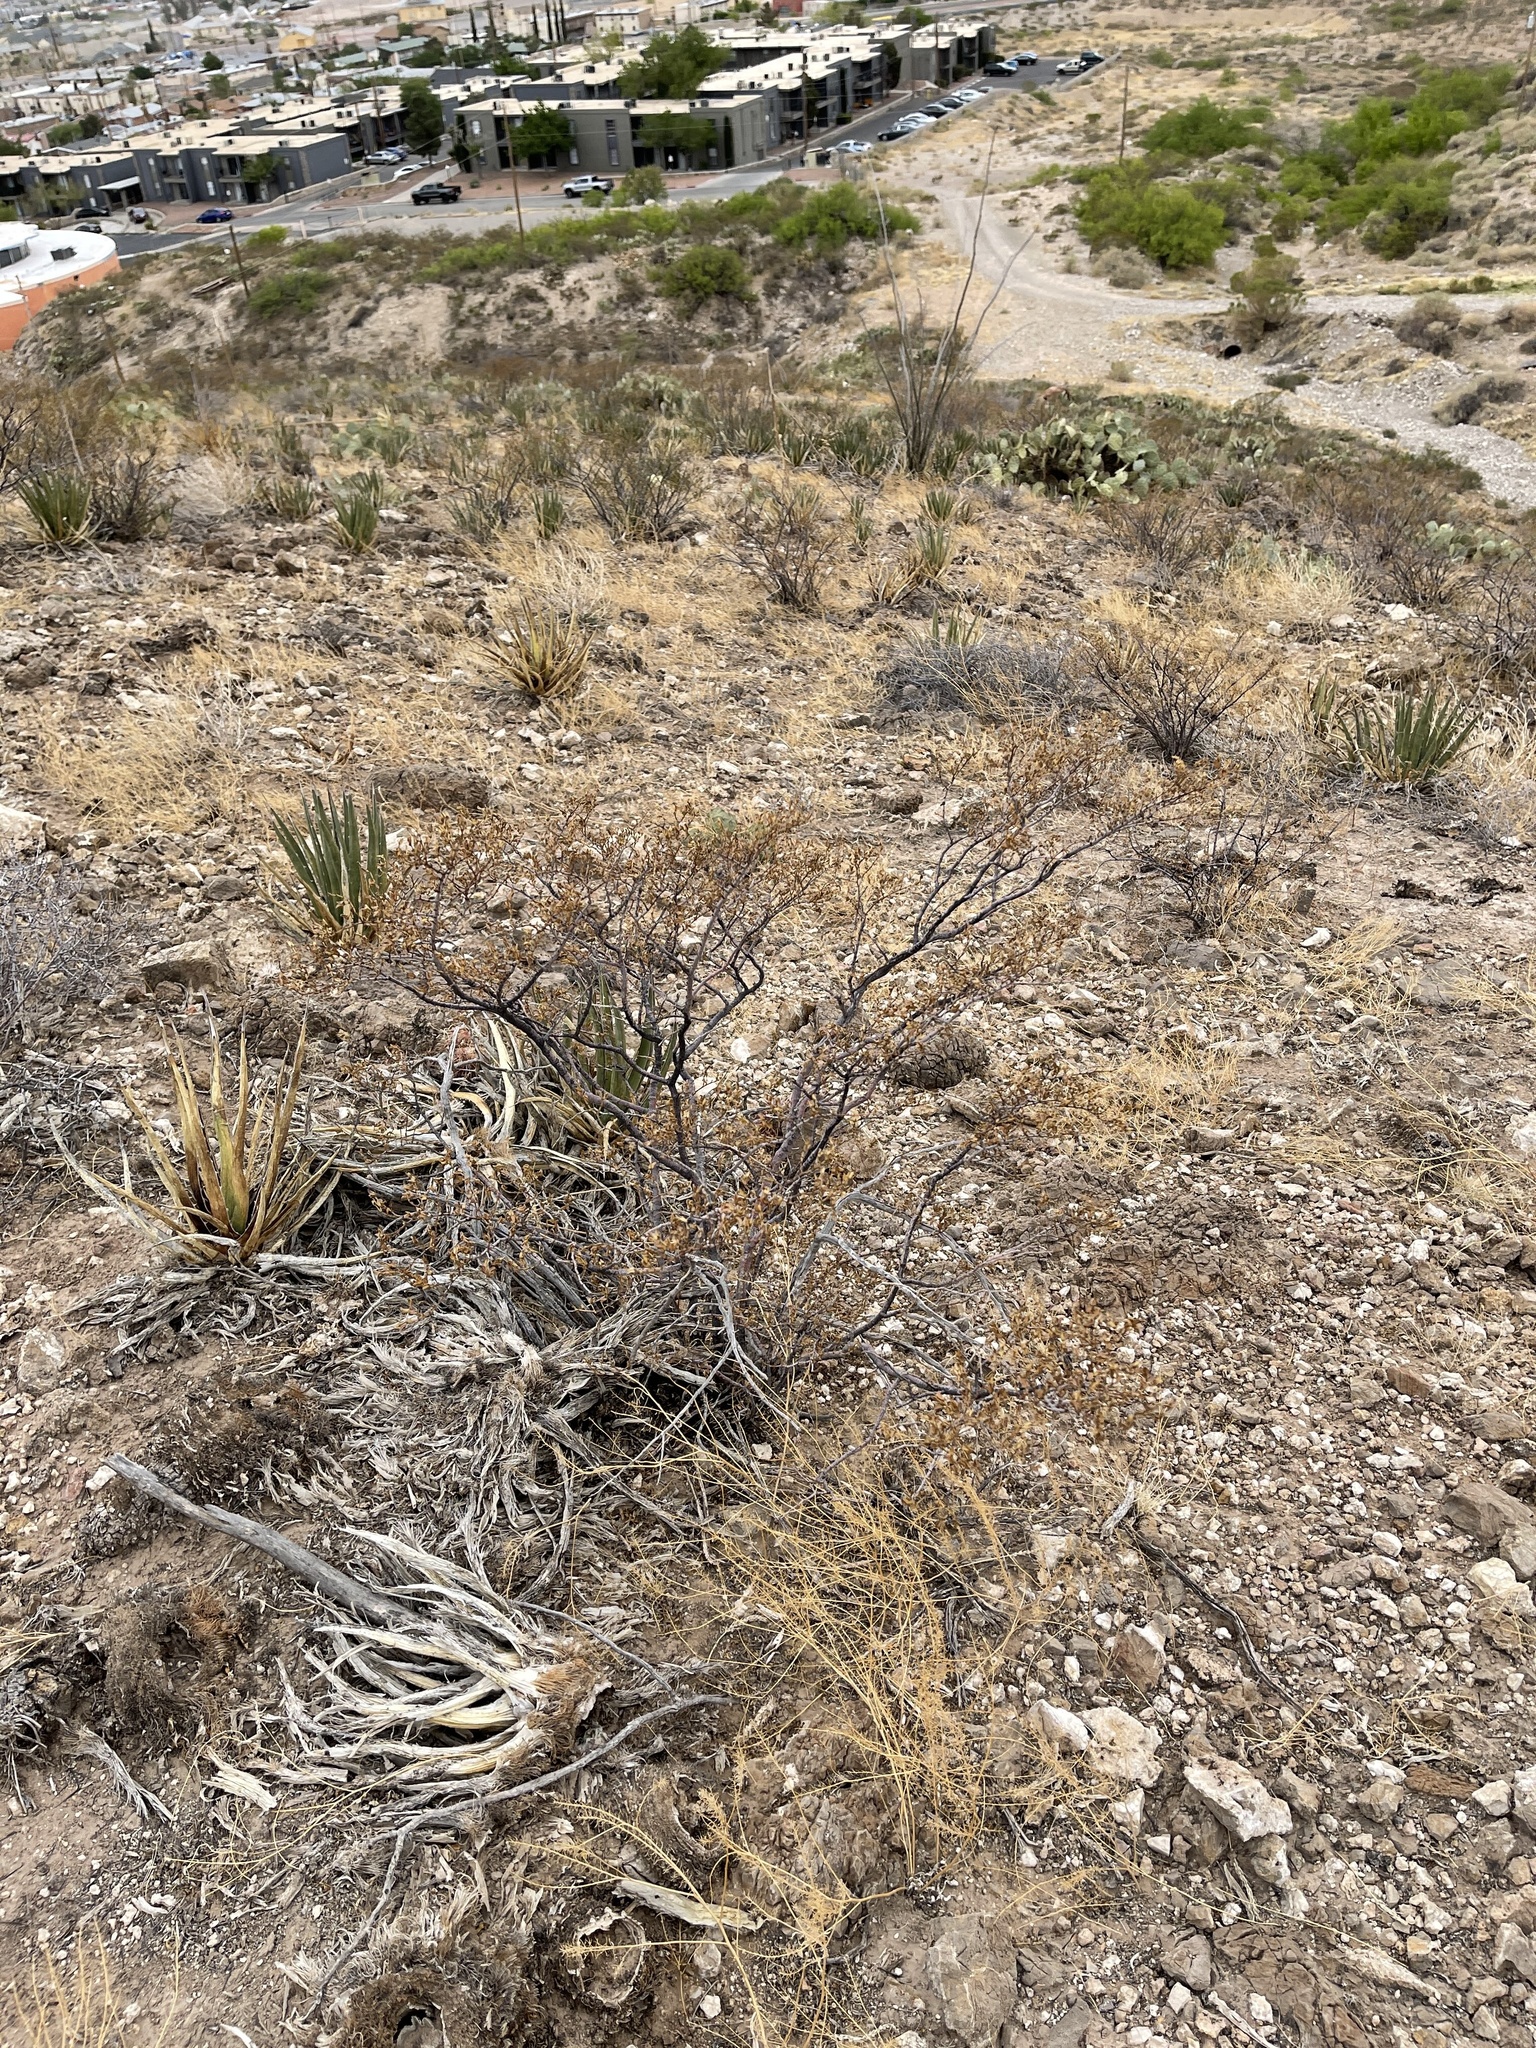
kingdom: Plantae
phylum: Tracheophyta
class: Magnoliopsida
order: Zygophyllales
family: Zygophyllaceae
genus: Larrea
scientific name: Larrea tridentata
